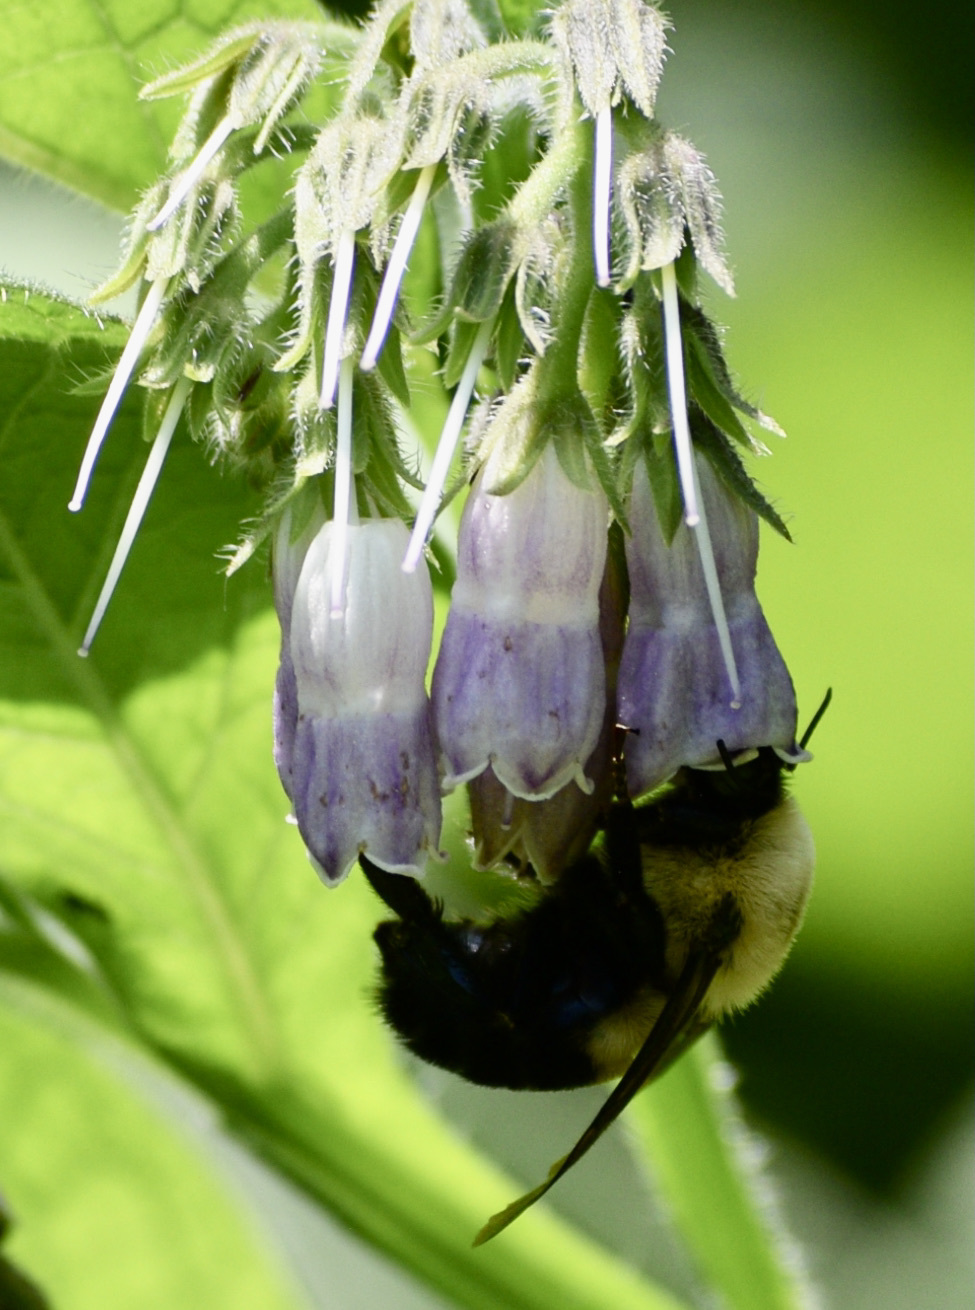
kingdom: Animalia
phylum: Arthropoda
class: Insecta
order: Hymenoptera
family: Apidae
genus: Bombus
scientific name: Bombus griseocollis
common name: Brown-belted bumble bee
